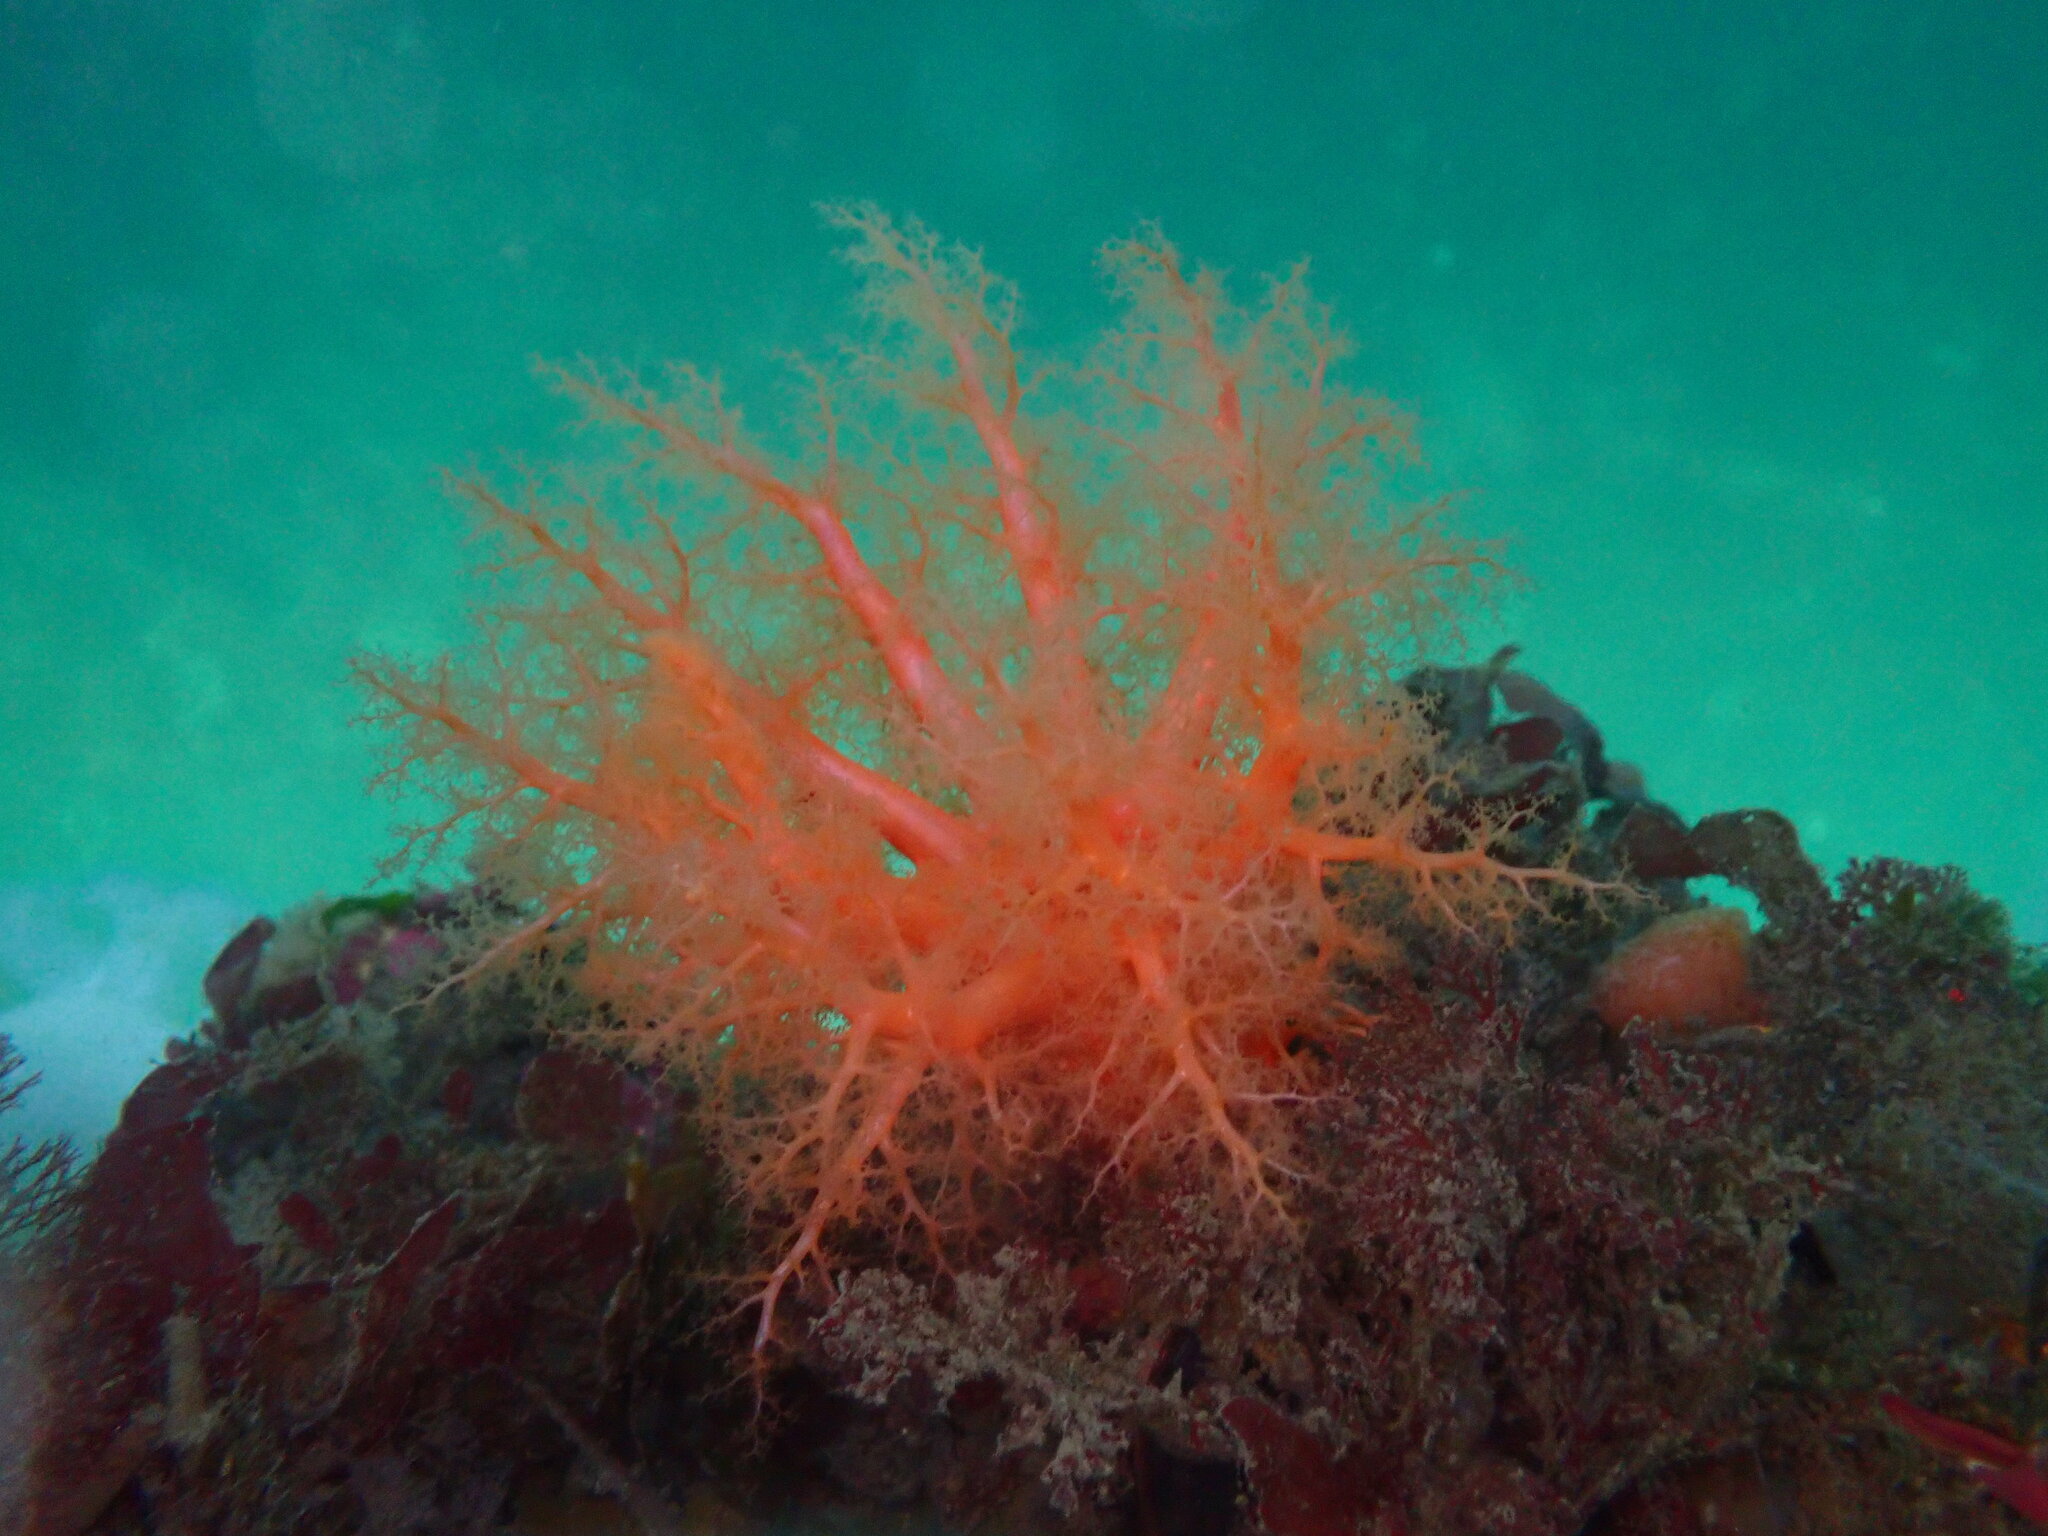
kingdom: Animalia
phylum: Echinodermata
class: Holothuroidea
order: Dendrochirotida
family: Cucumariidae
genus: Cucumaria
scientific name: Cucumaria miniata
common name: Orange sea cucumber
